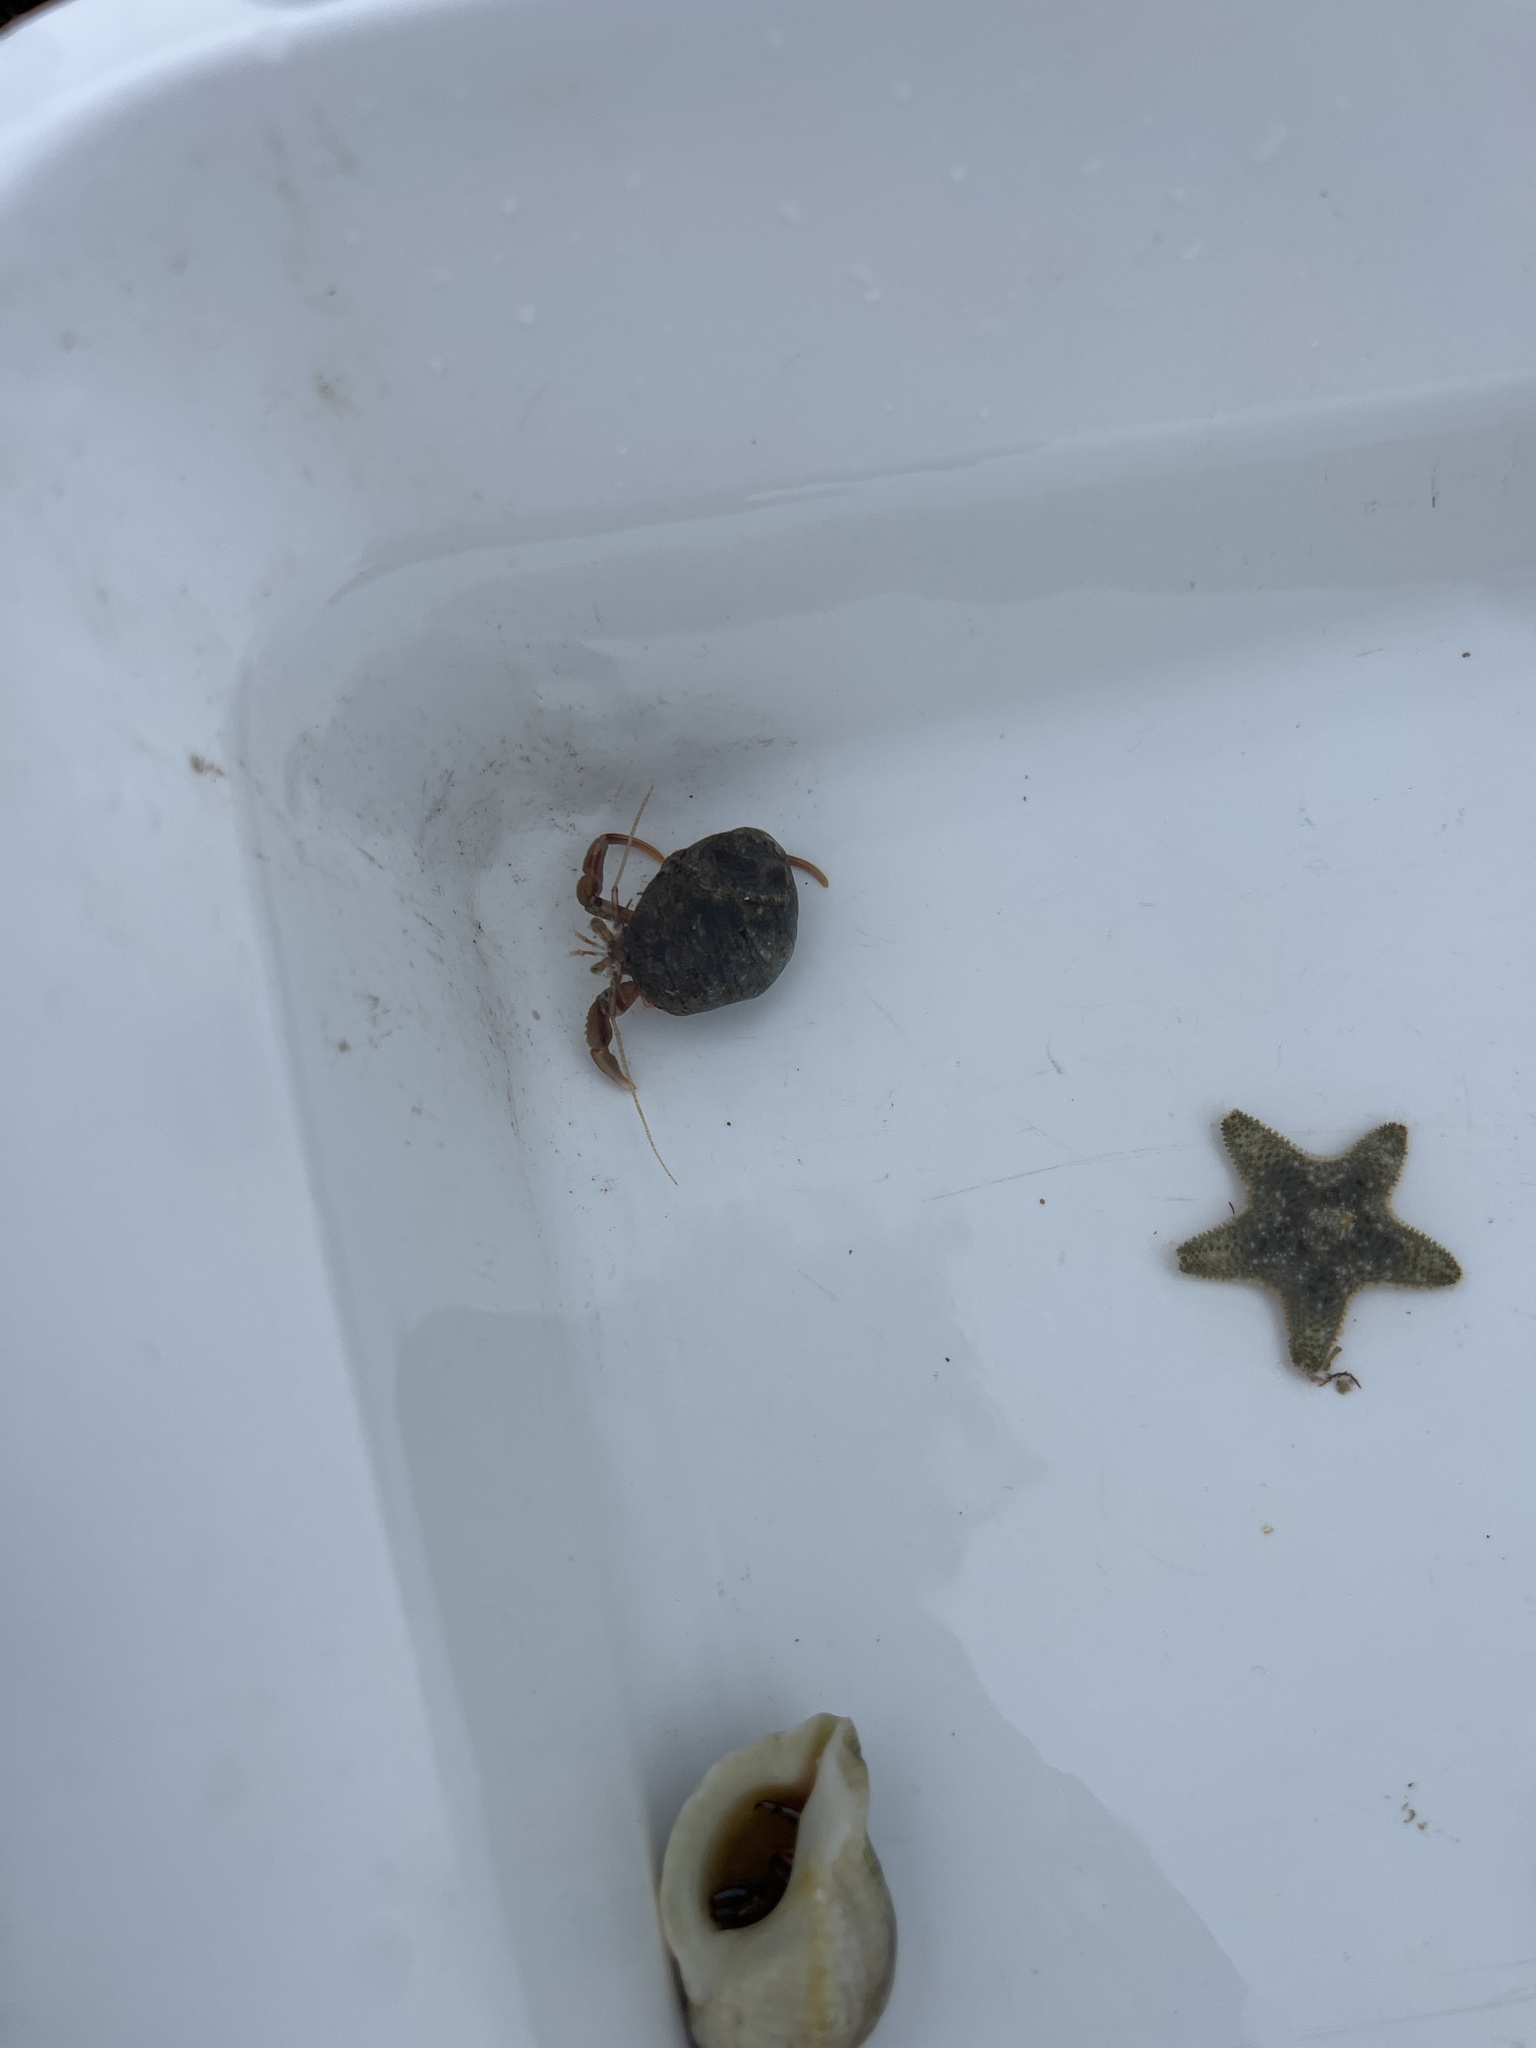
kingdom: Animalia
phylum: Arthropoda
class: Malacostraca
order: Decapoda
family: Paguridae
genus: Pagurus
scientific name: Pagurus bernhardus
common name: Hermit crab
